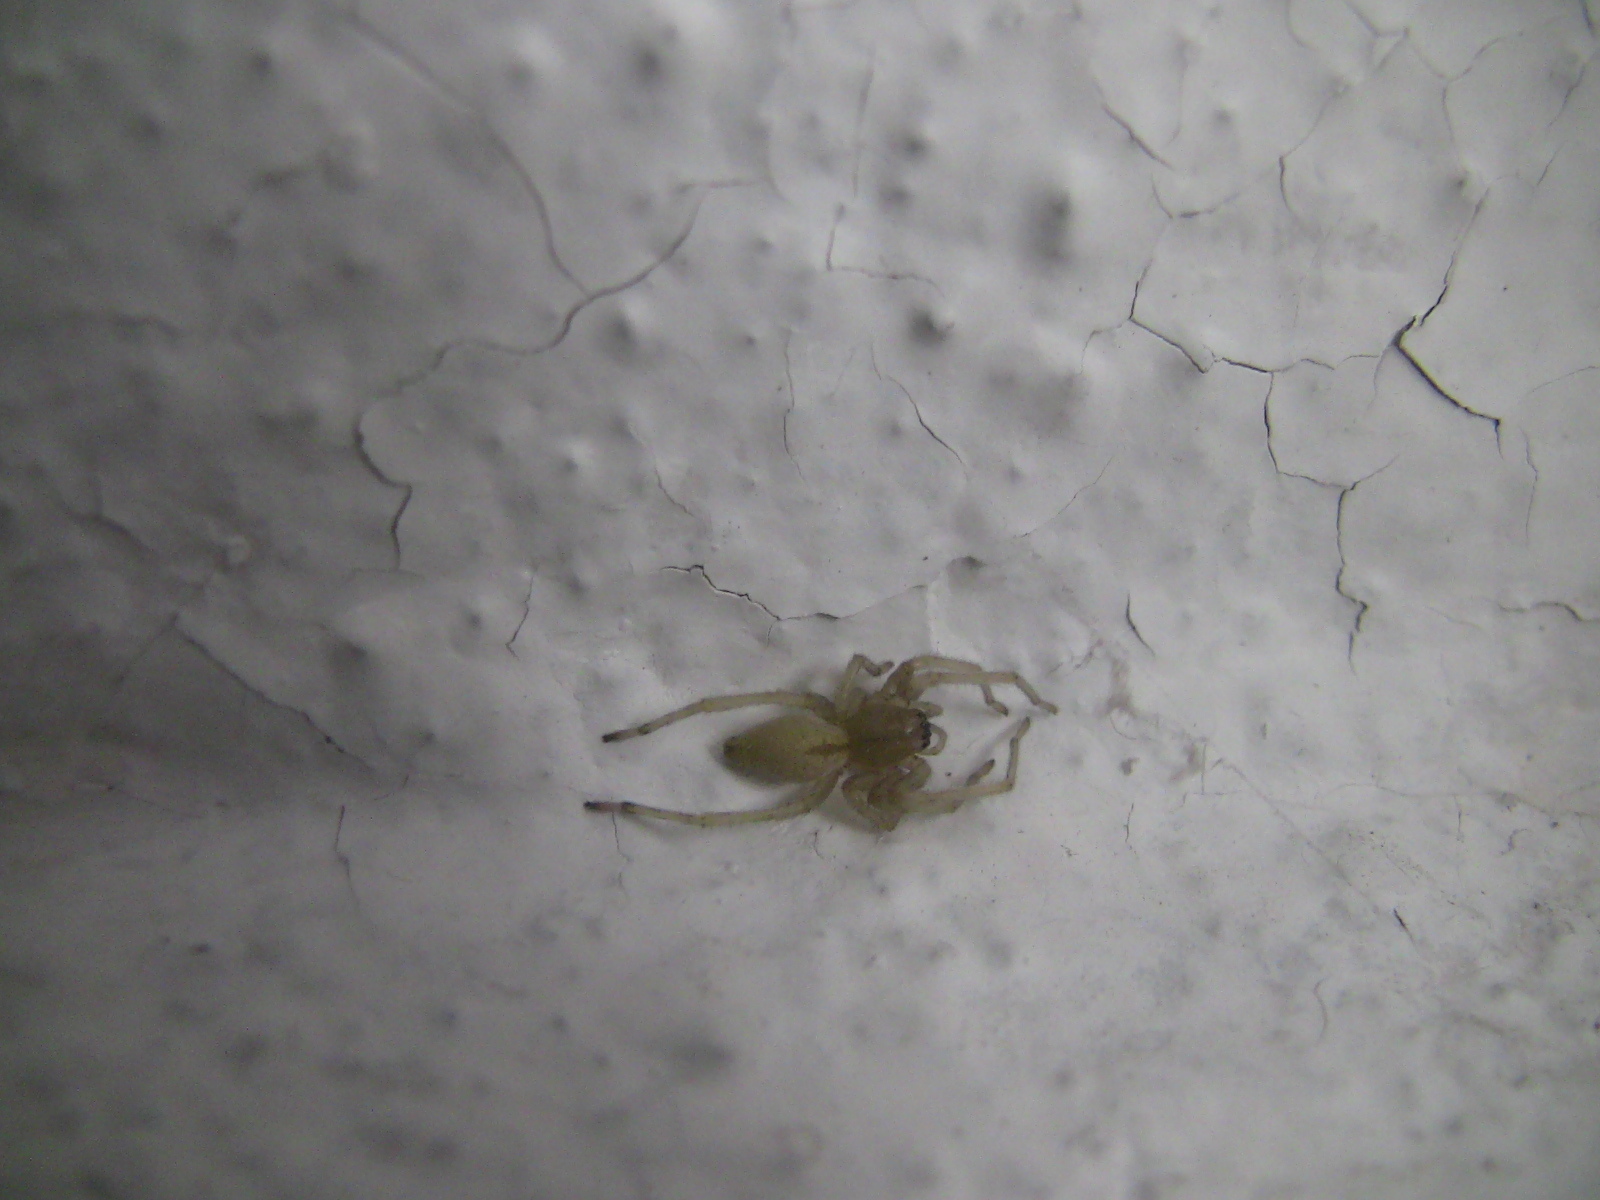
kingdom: Animalia
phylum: Arthropoda
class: Arachnida
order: Araneae
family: Cheiracanthiidae
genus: Cheiracanthium
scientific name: Cheiracanthium mildei
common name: Northern yellow sac spider
